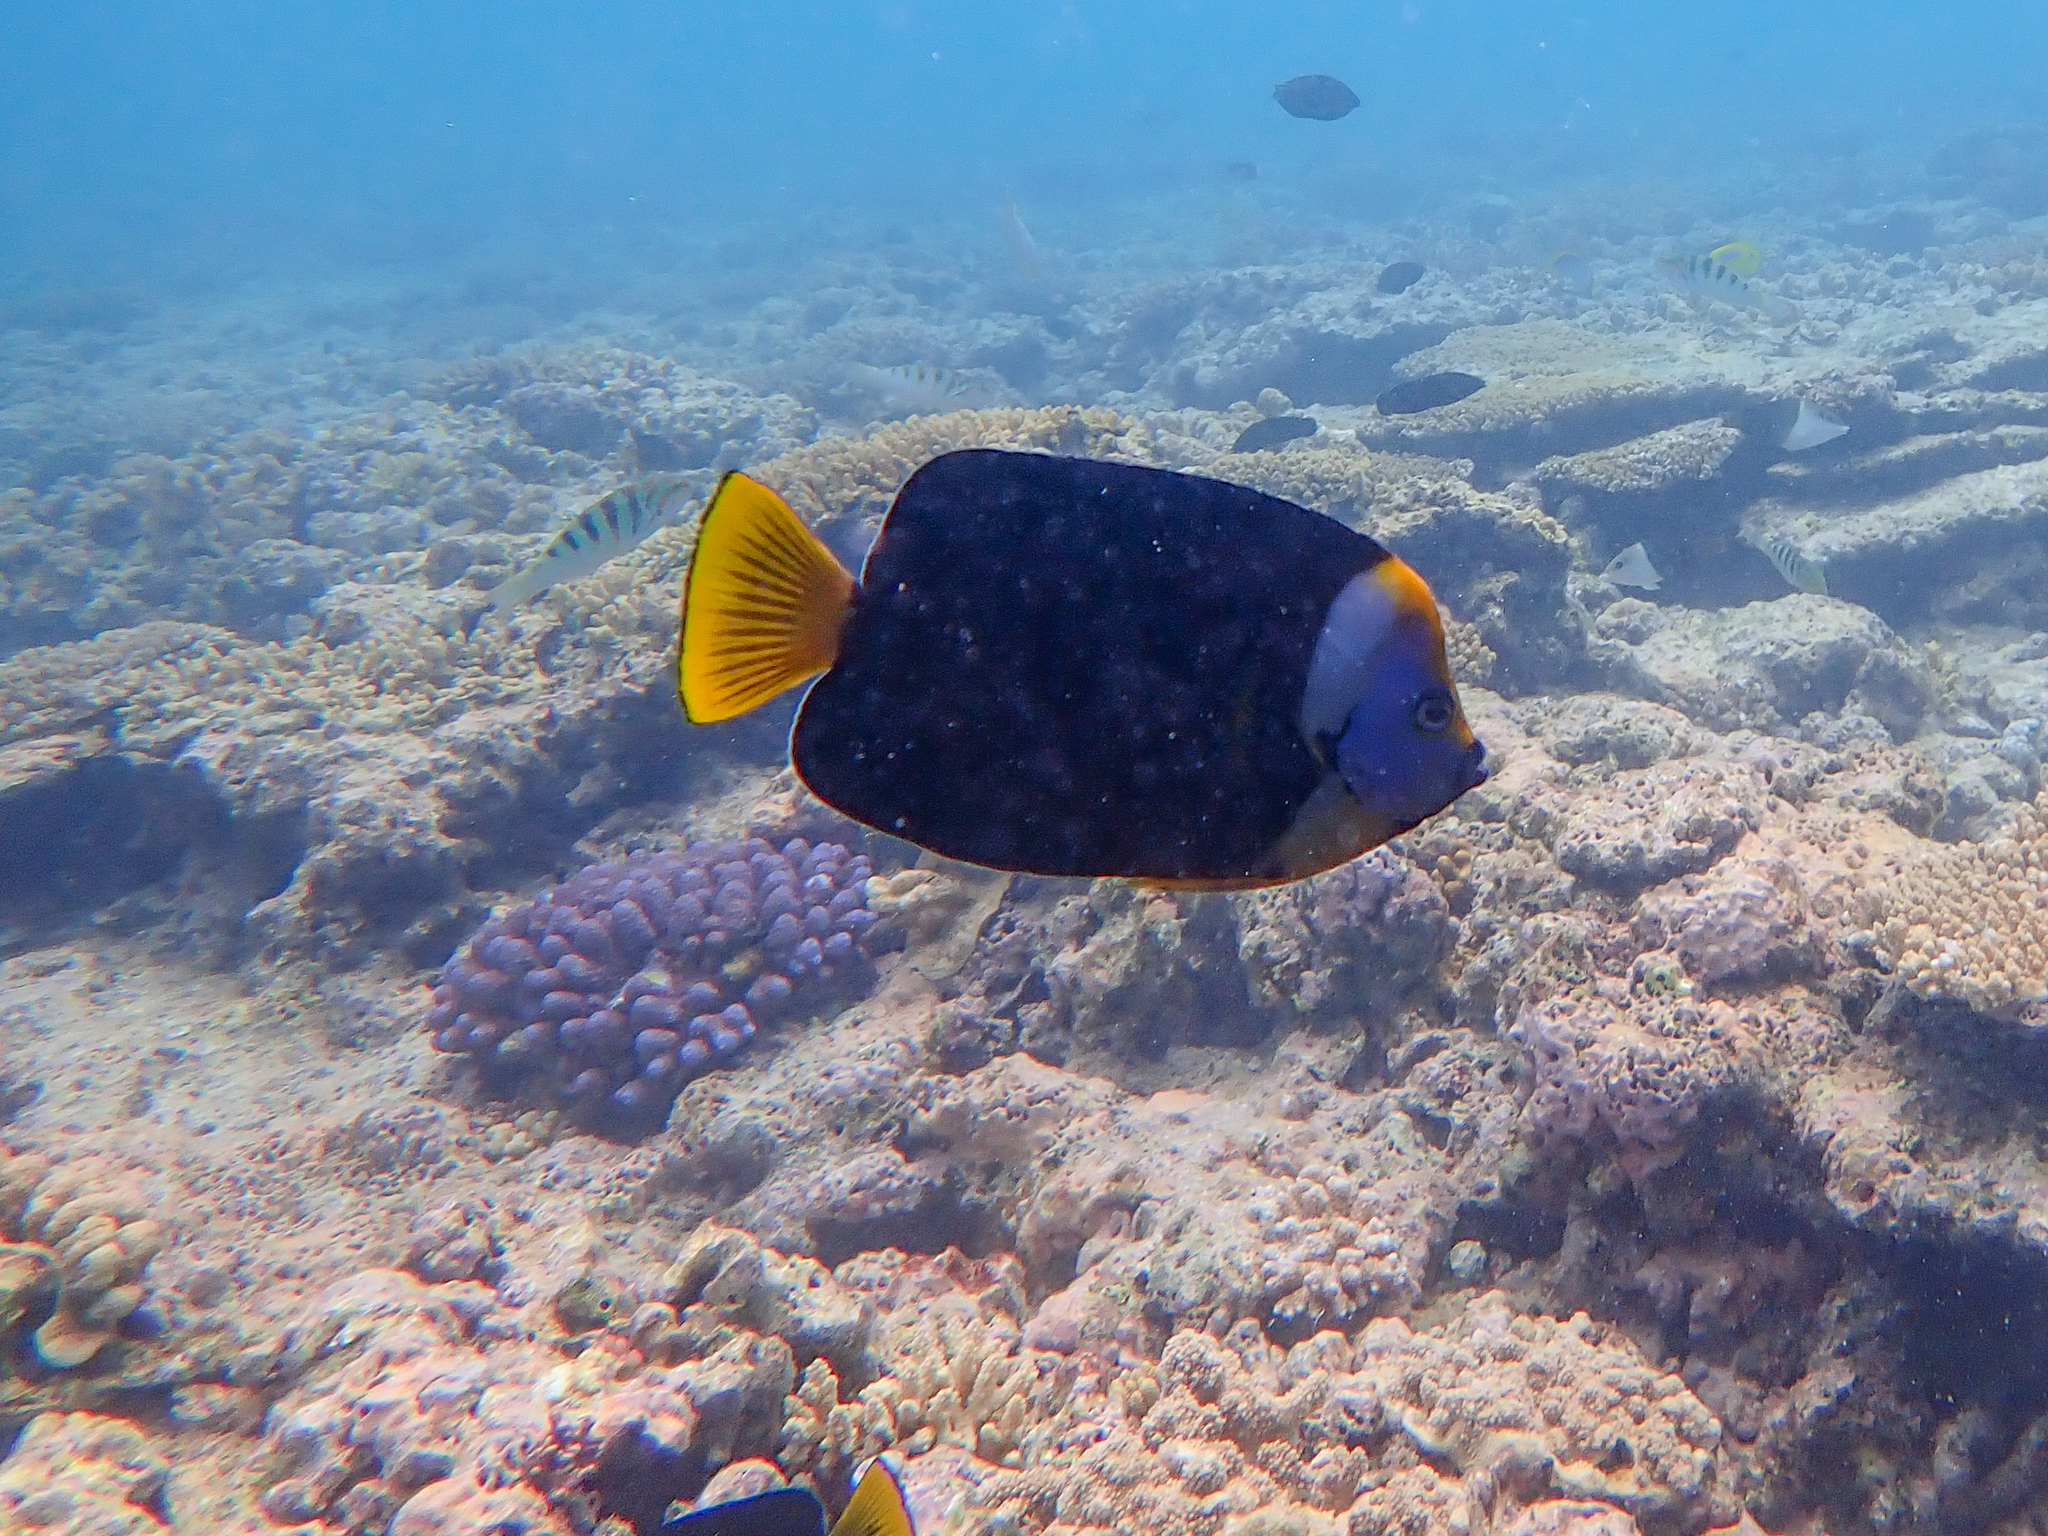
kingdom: Animalia
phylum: Chordata
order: Perciformes
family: Pomacanthidae
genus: Chaetodontoplus
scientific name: Chaetodontoplus meredithi
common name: Meredith's angelfish
